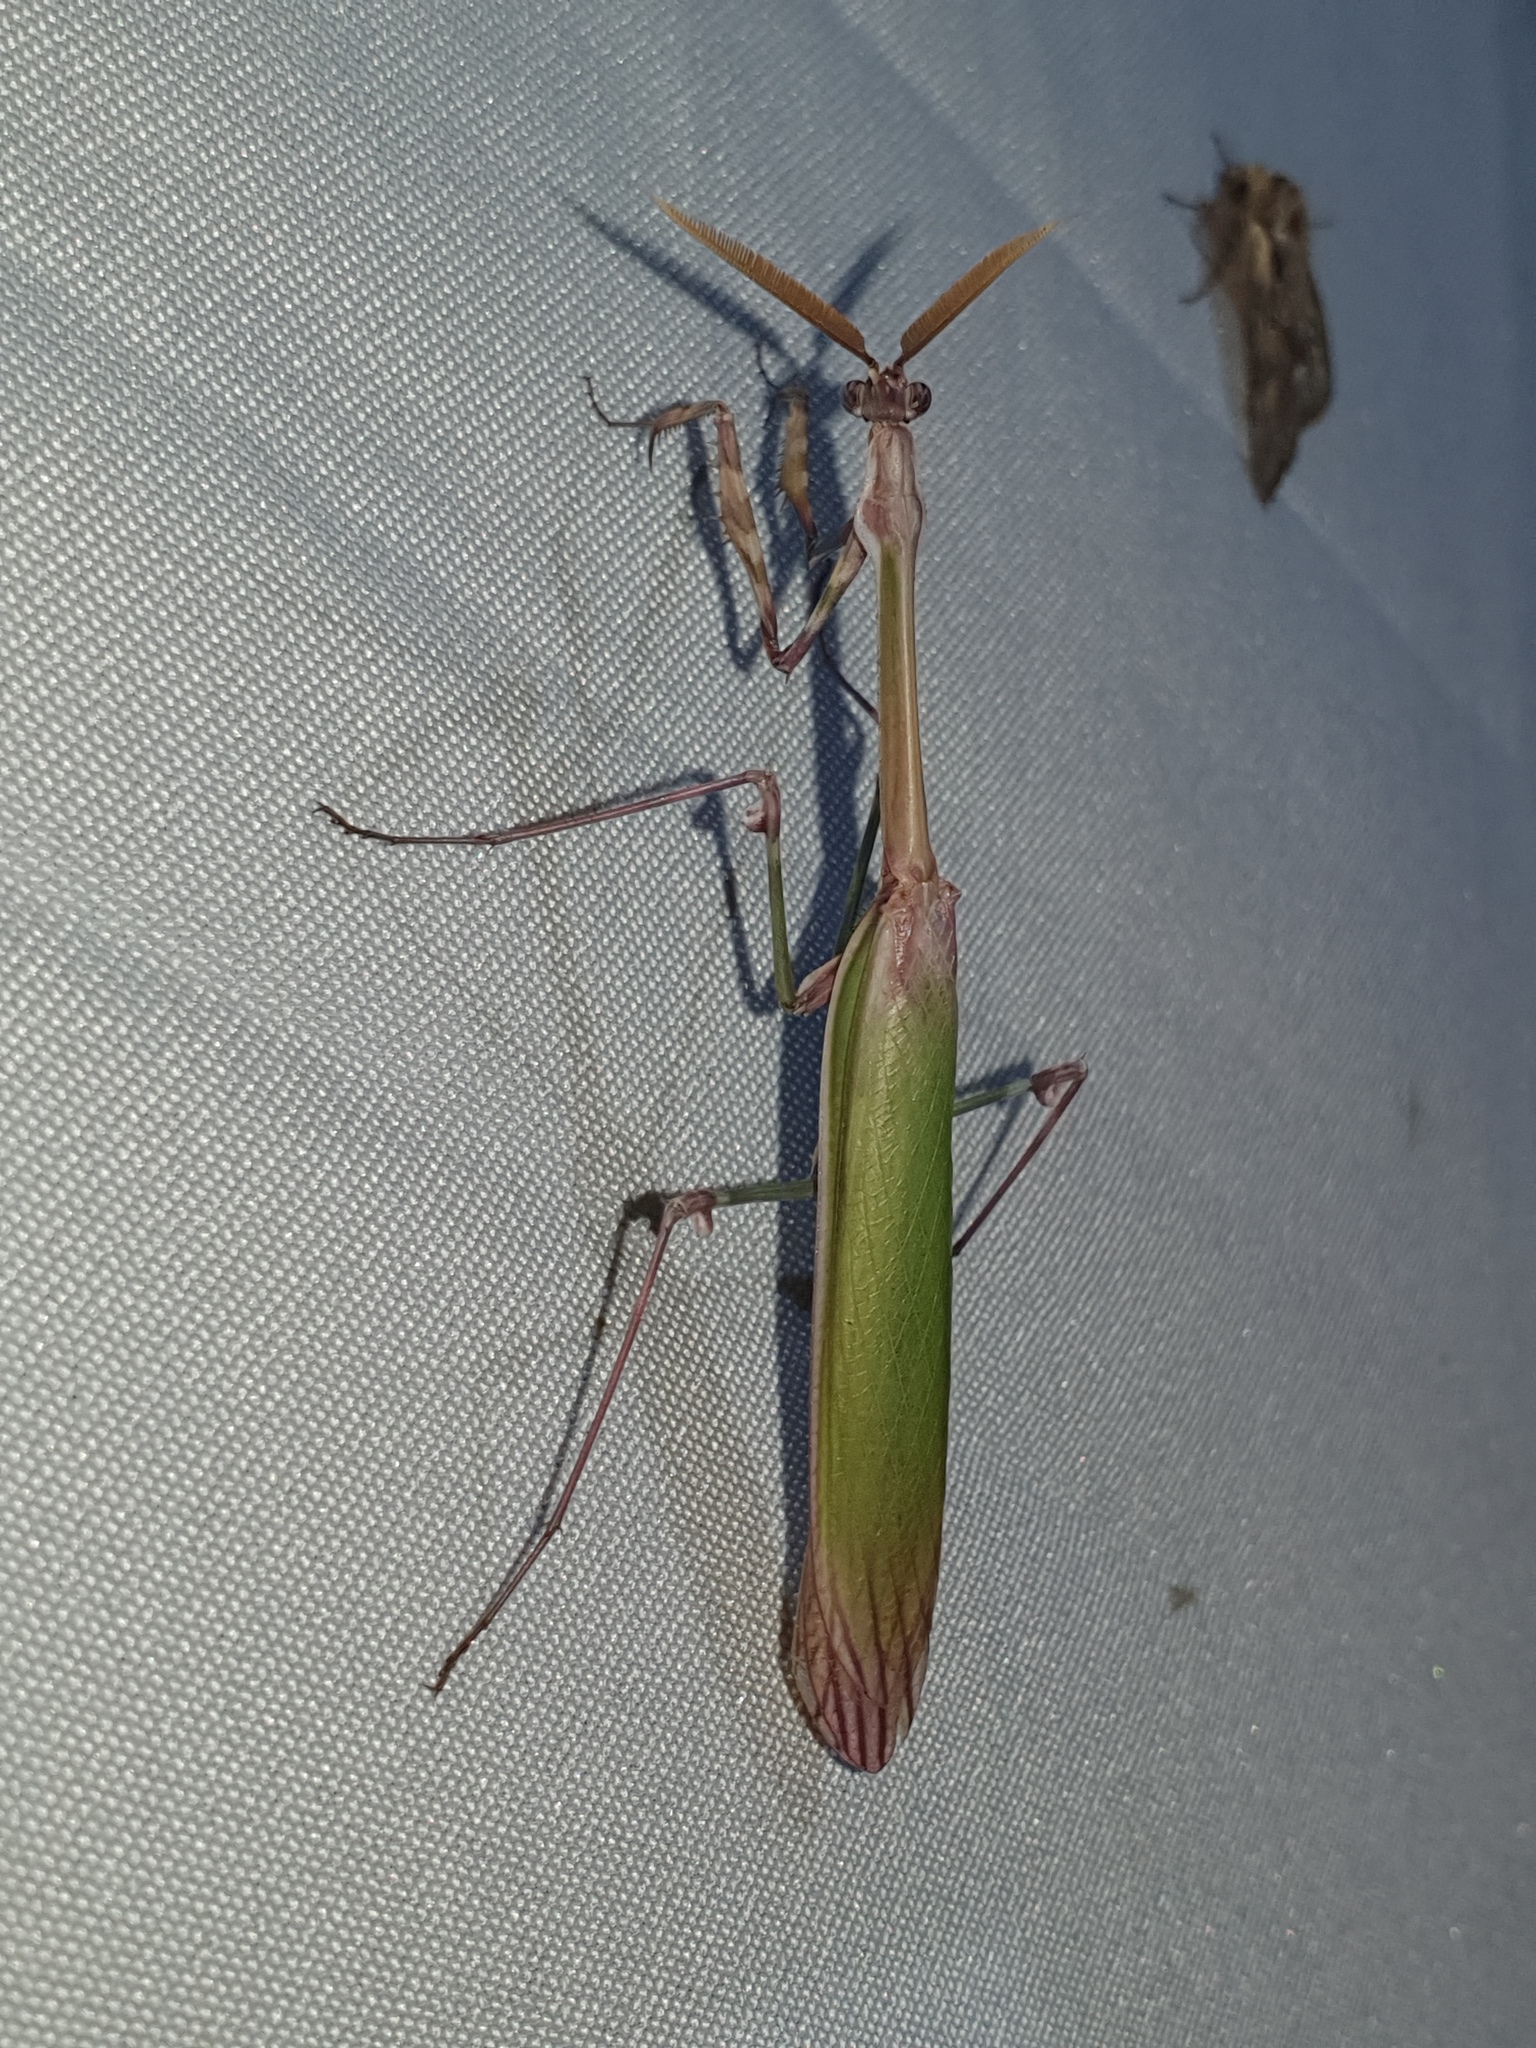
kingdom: Animalia
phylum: Arthropoda
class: Insecta
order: Mantodea
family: Empusidae
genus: Empusa
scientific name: Empusa pennata
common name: Conehead mantis
